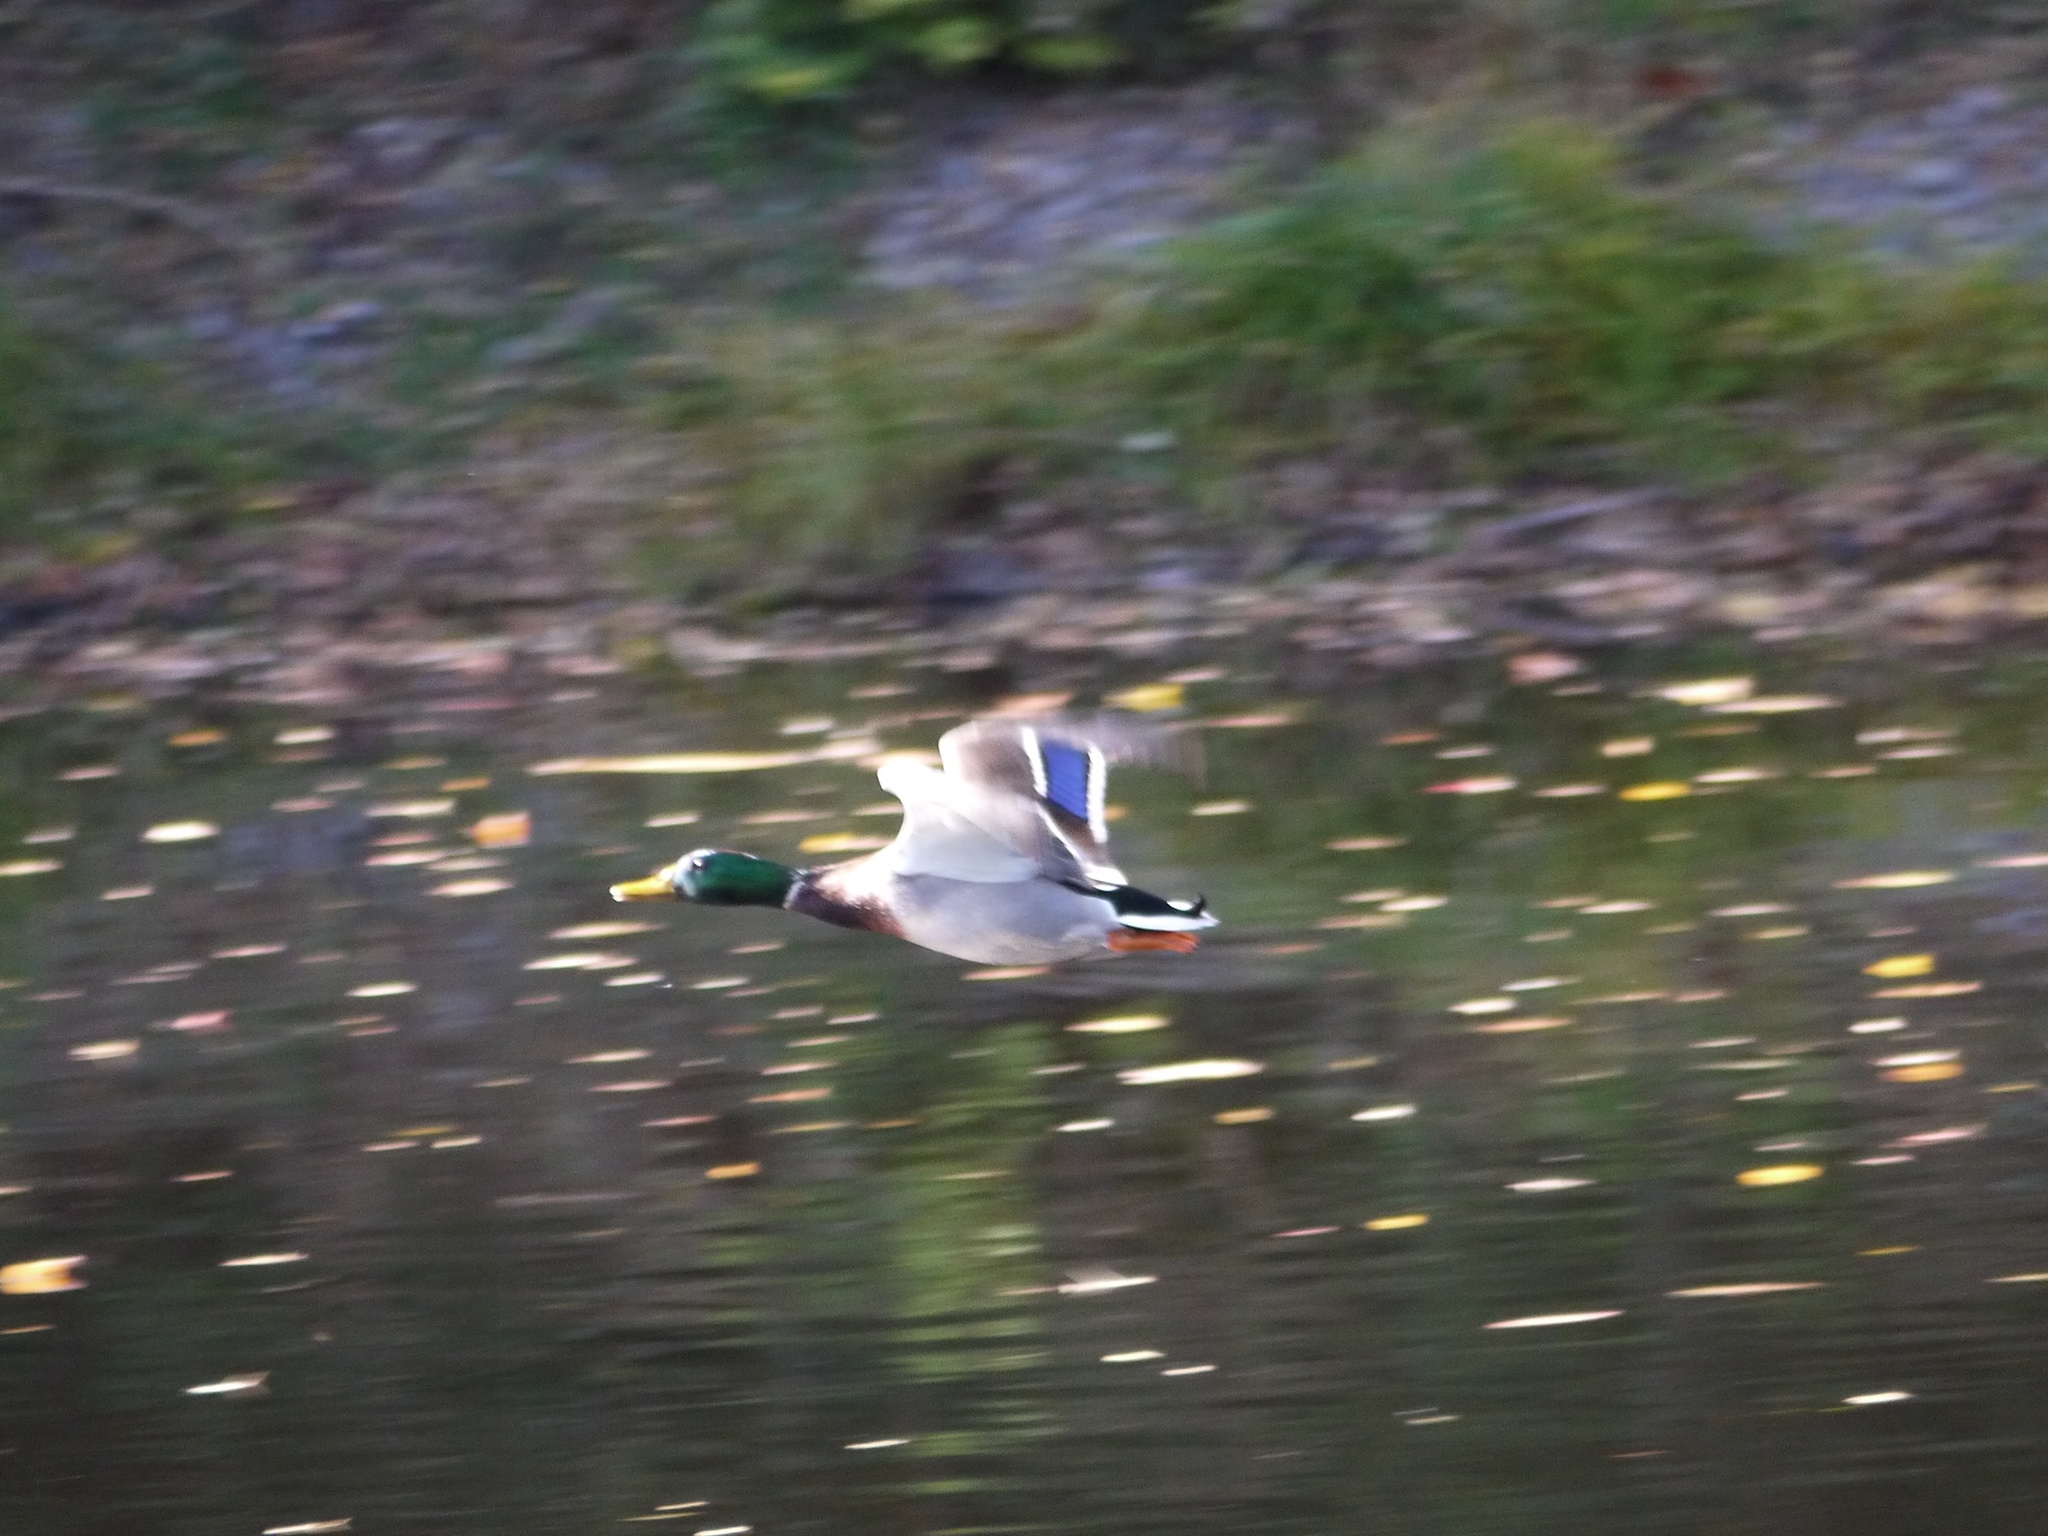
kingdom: Animalia
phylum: Chordata
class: Aves
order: Anseriformes
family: Anatidae
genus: Anas
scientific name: Anas platyrhynchos
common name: Mallard
